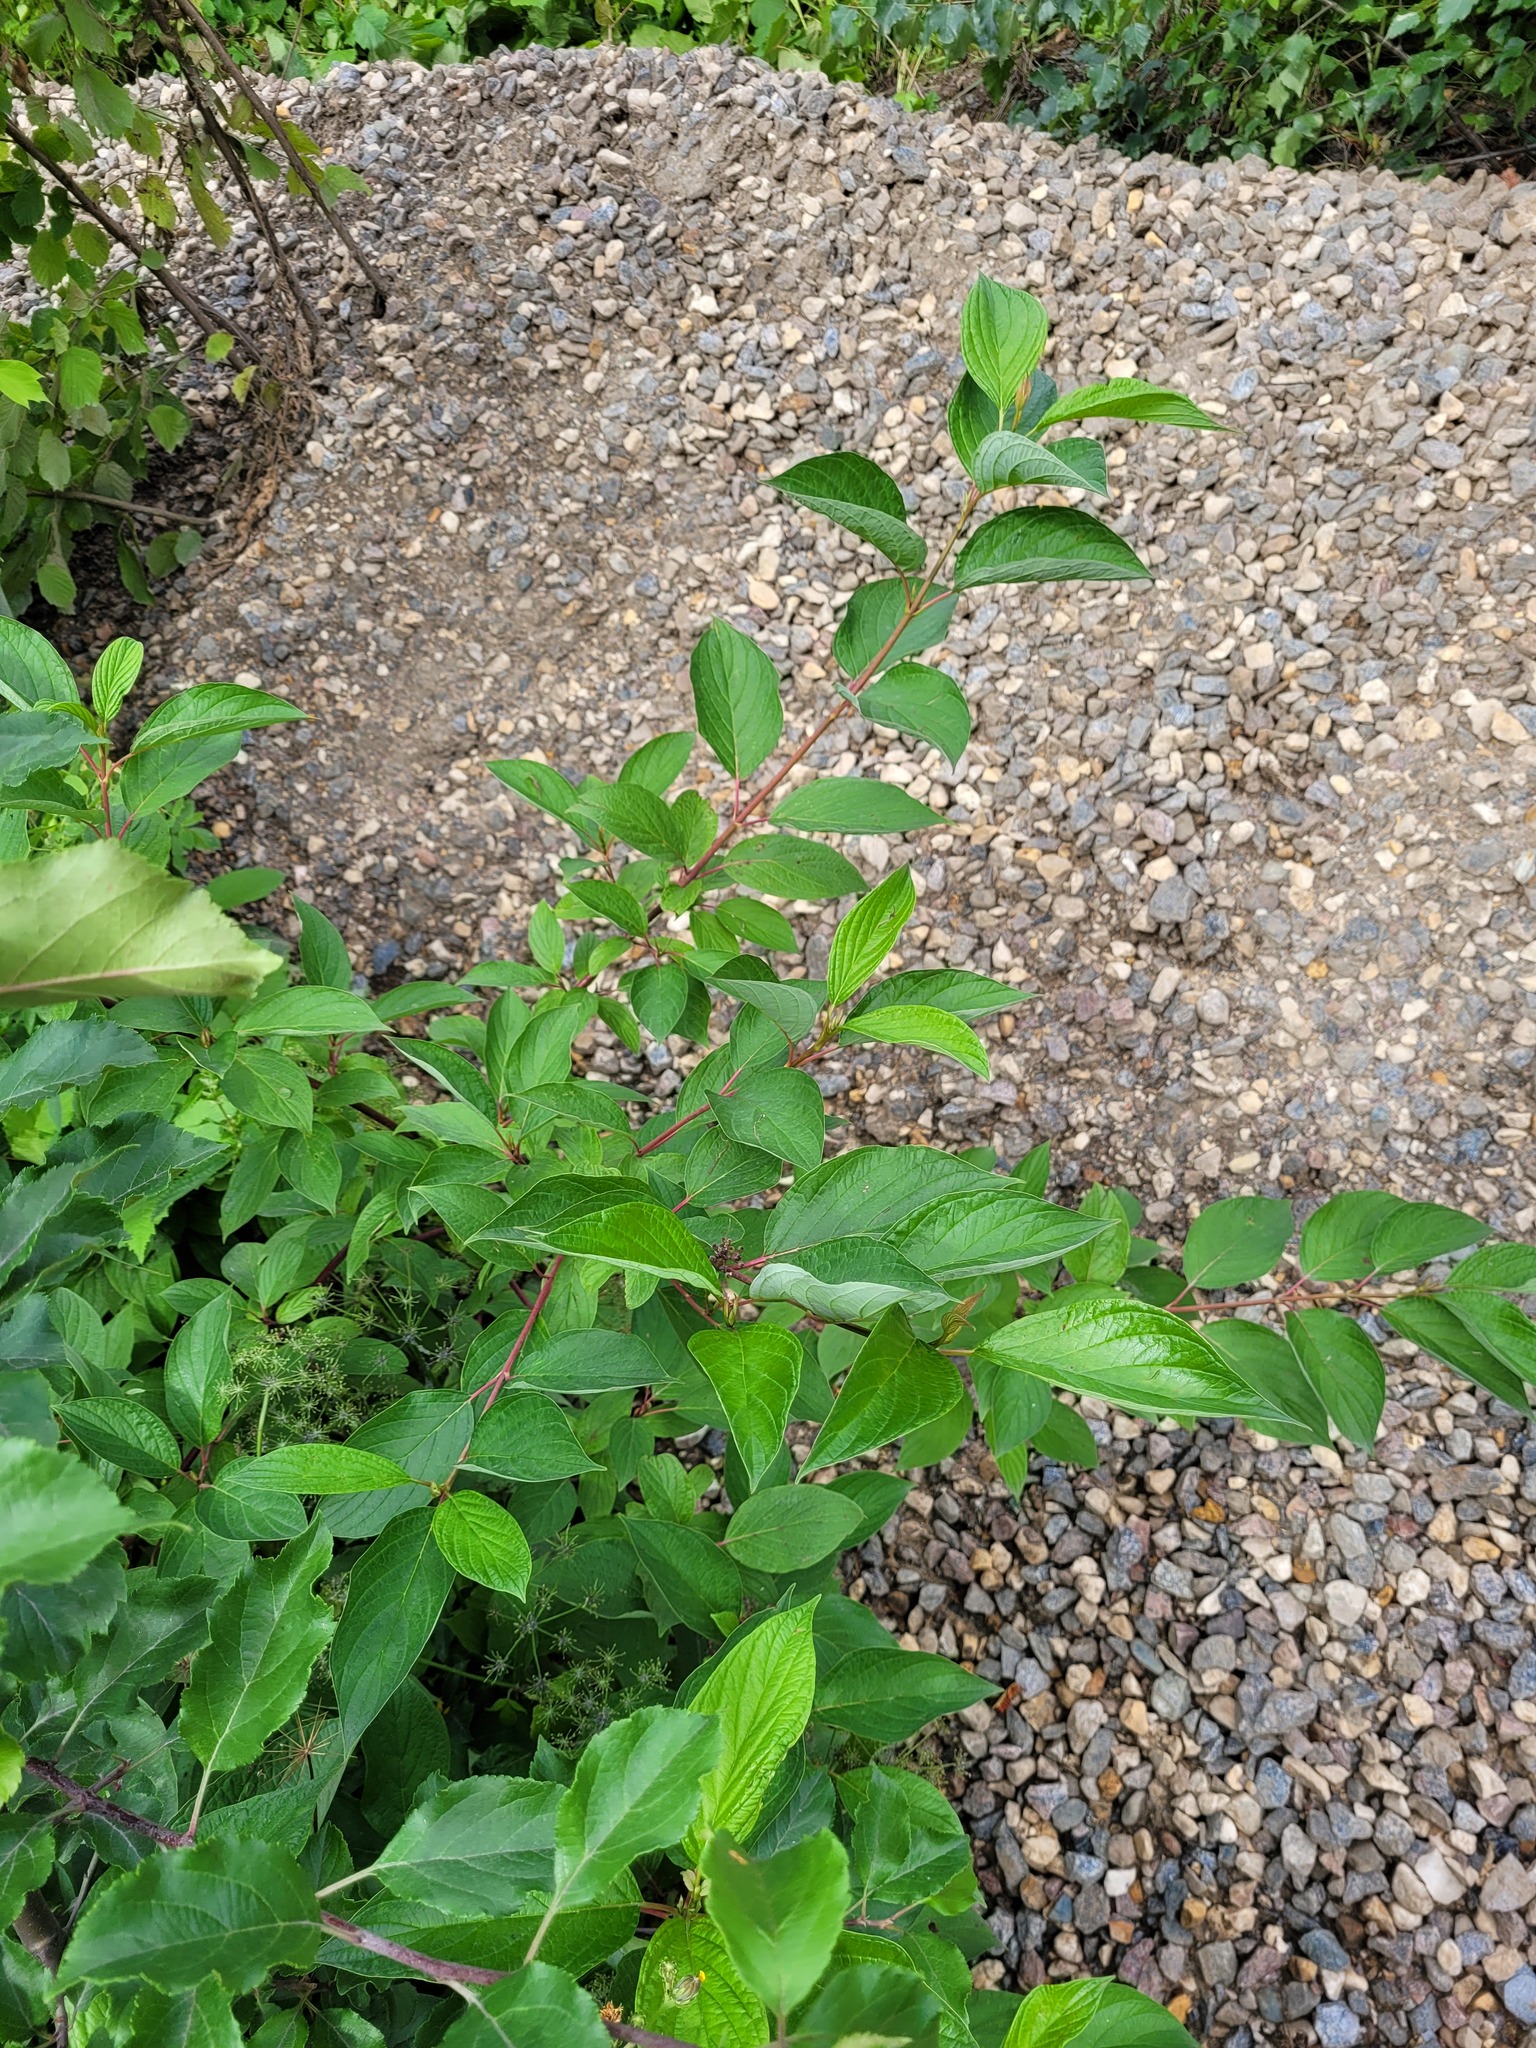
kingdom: Plantae
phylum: Tracheophyta
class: Magnoliopsida
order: Cornales
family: Cornaceae
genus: Cornus
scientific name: Cornus alba
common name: White dogwood
